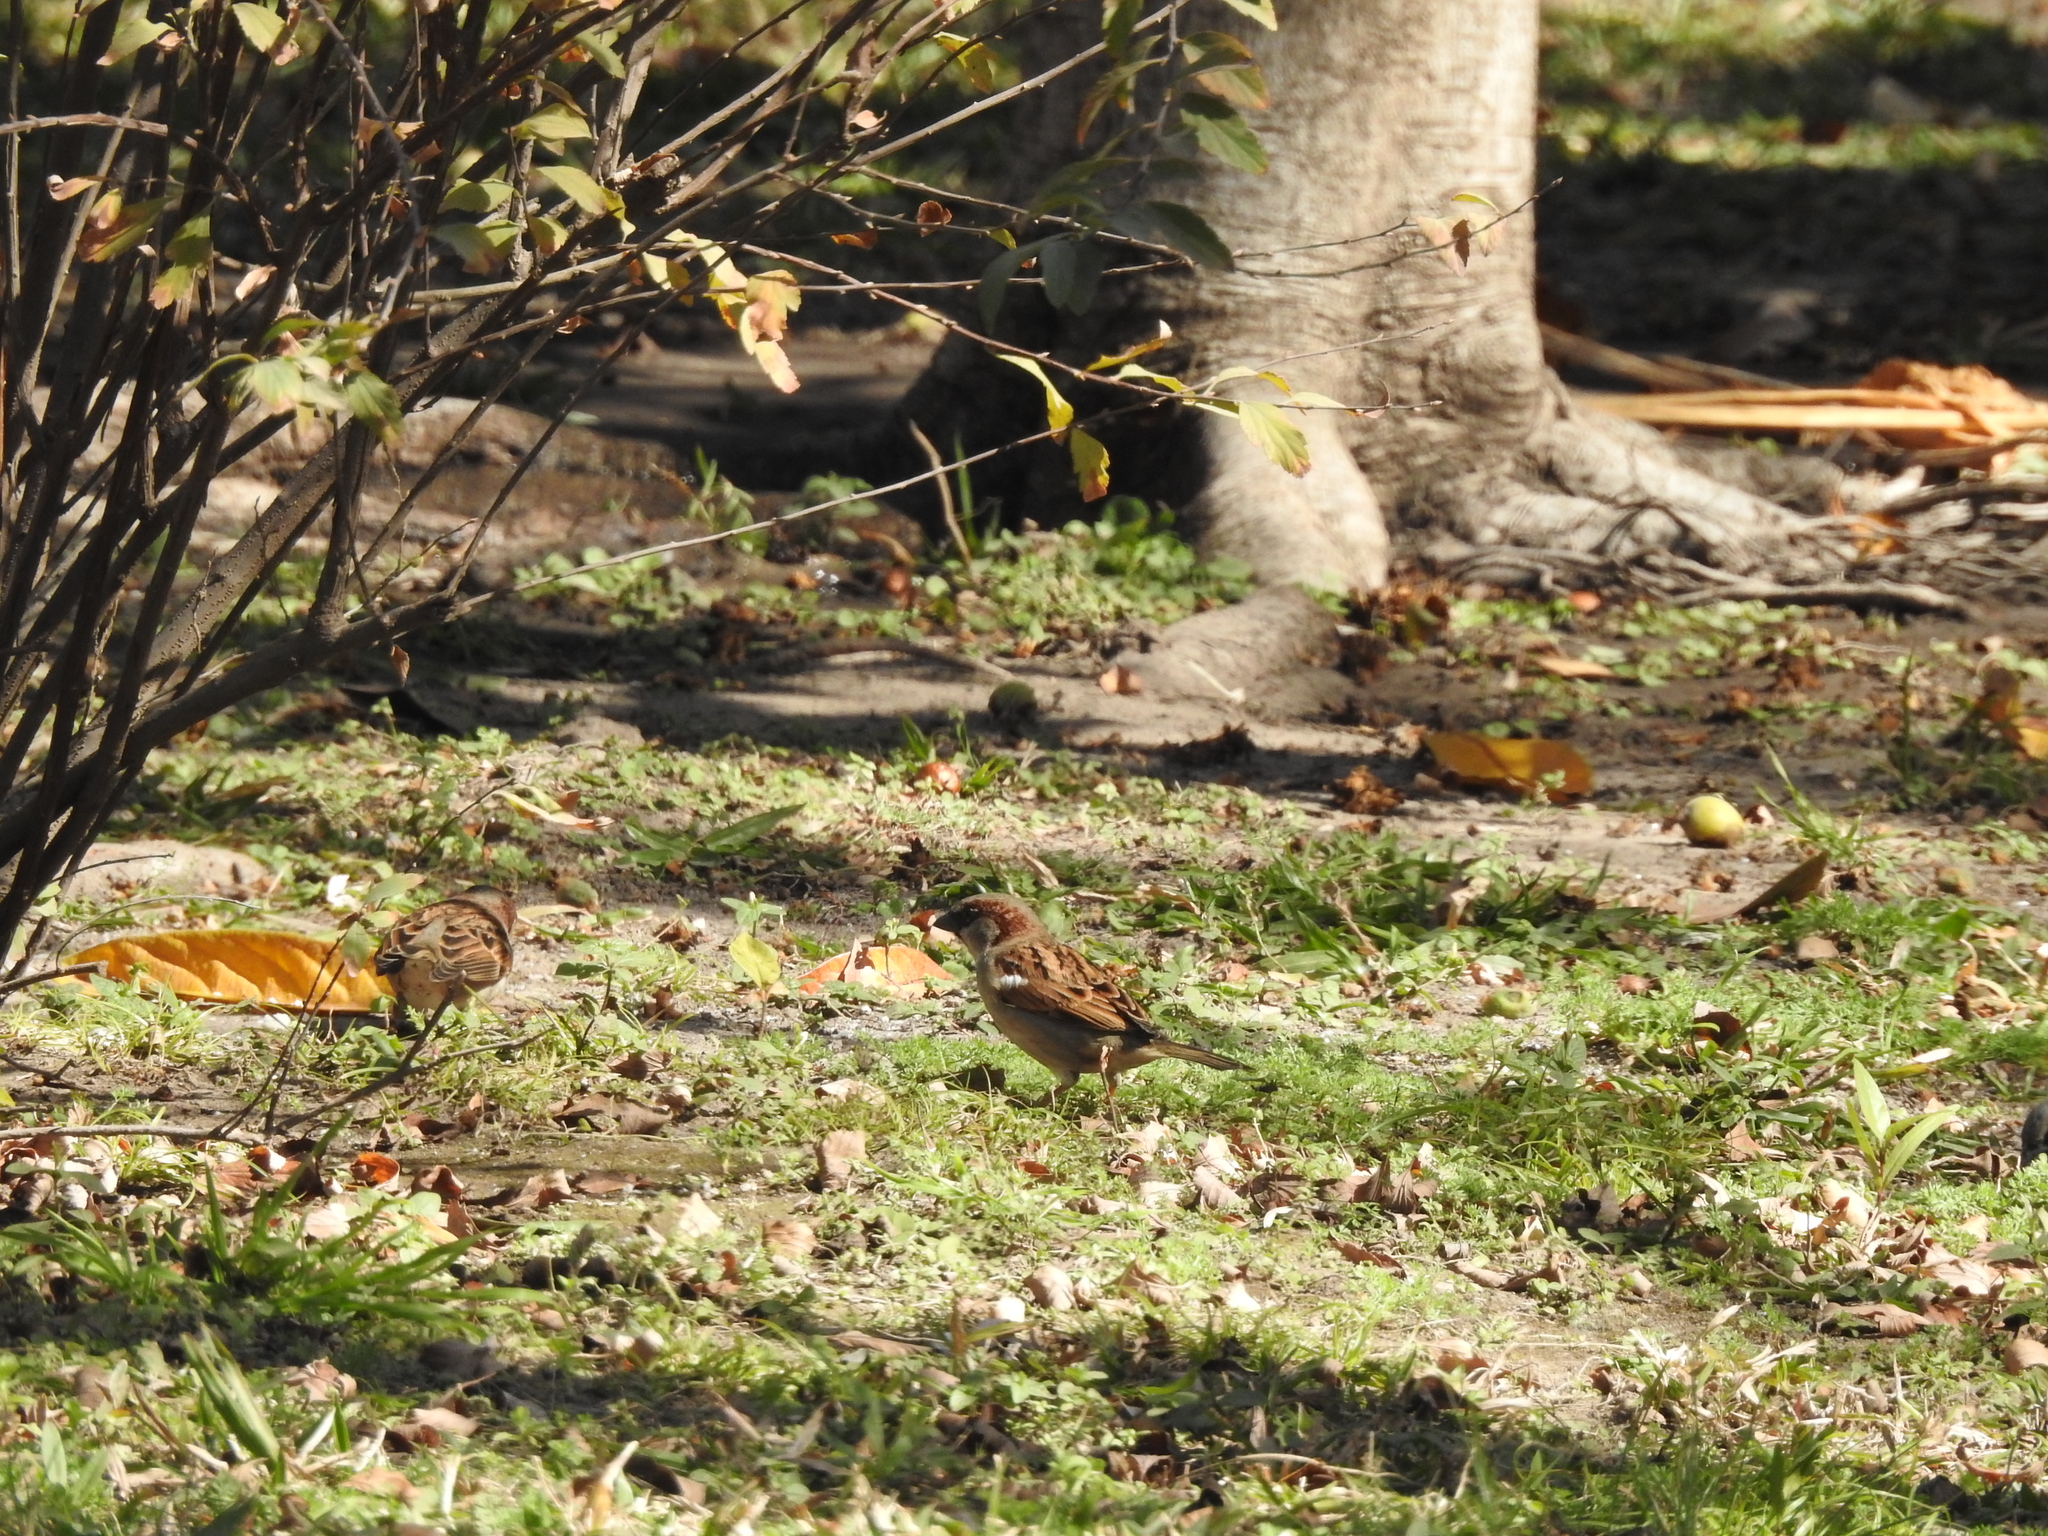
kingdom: Animalia
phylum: Chordata
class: Aves
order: Passeriformes
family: Passeridae
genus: Passer
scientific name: Passer domesticus
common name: House sparrow
